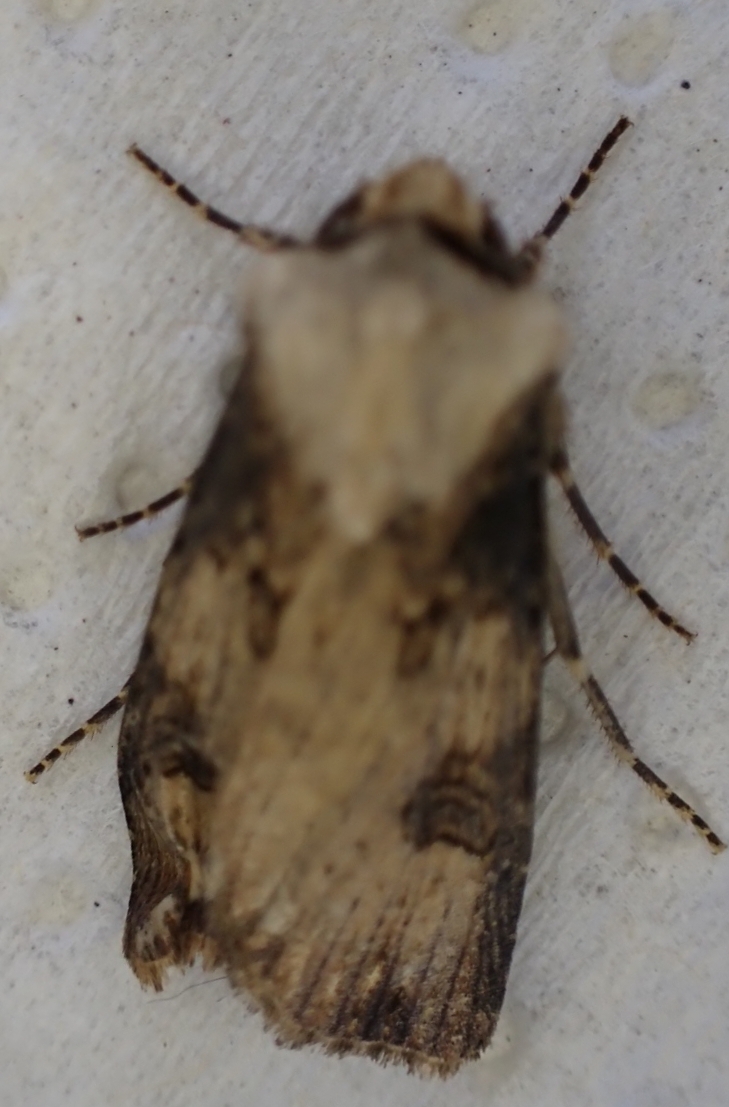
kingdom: Animalia
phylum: Arthropoda
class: Insecta
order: Lepidoptera
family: Noctuidae
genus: Agrotis
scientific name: Agrotis puta
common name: Shuttle-shaped dart
